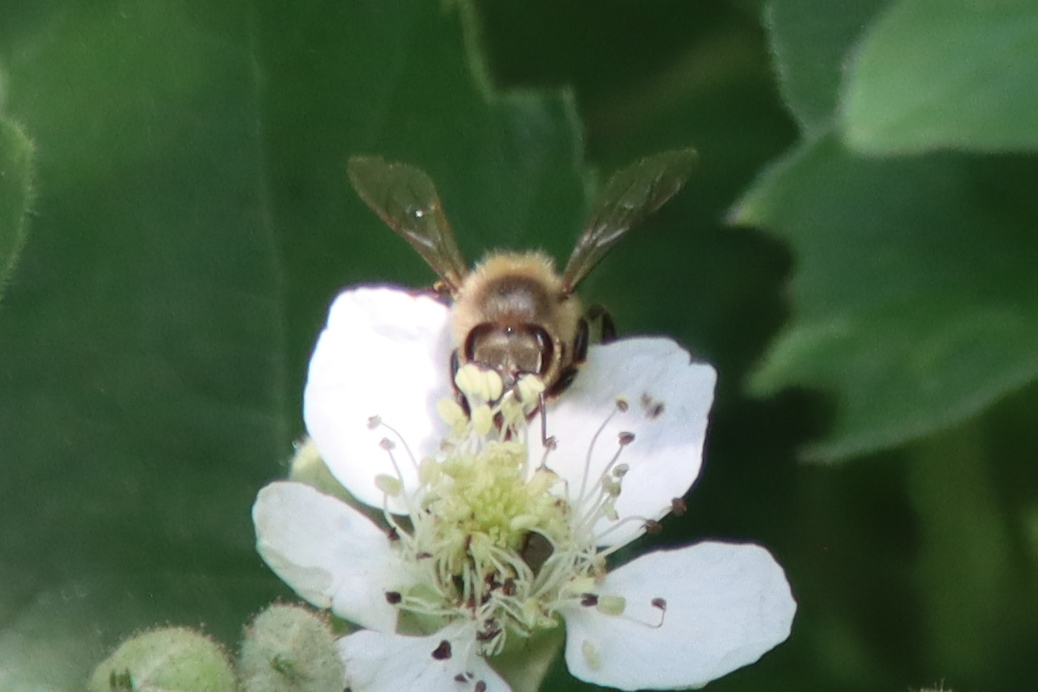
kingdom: Animalia
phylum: Arthropoda
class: Insecta
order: Hymenoptera
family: Apidae
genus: Apis
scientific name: Apis mellifera
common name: Honey bee
